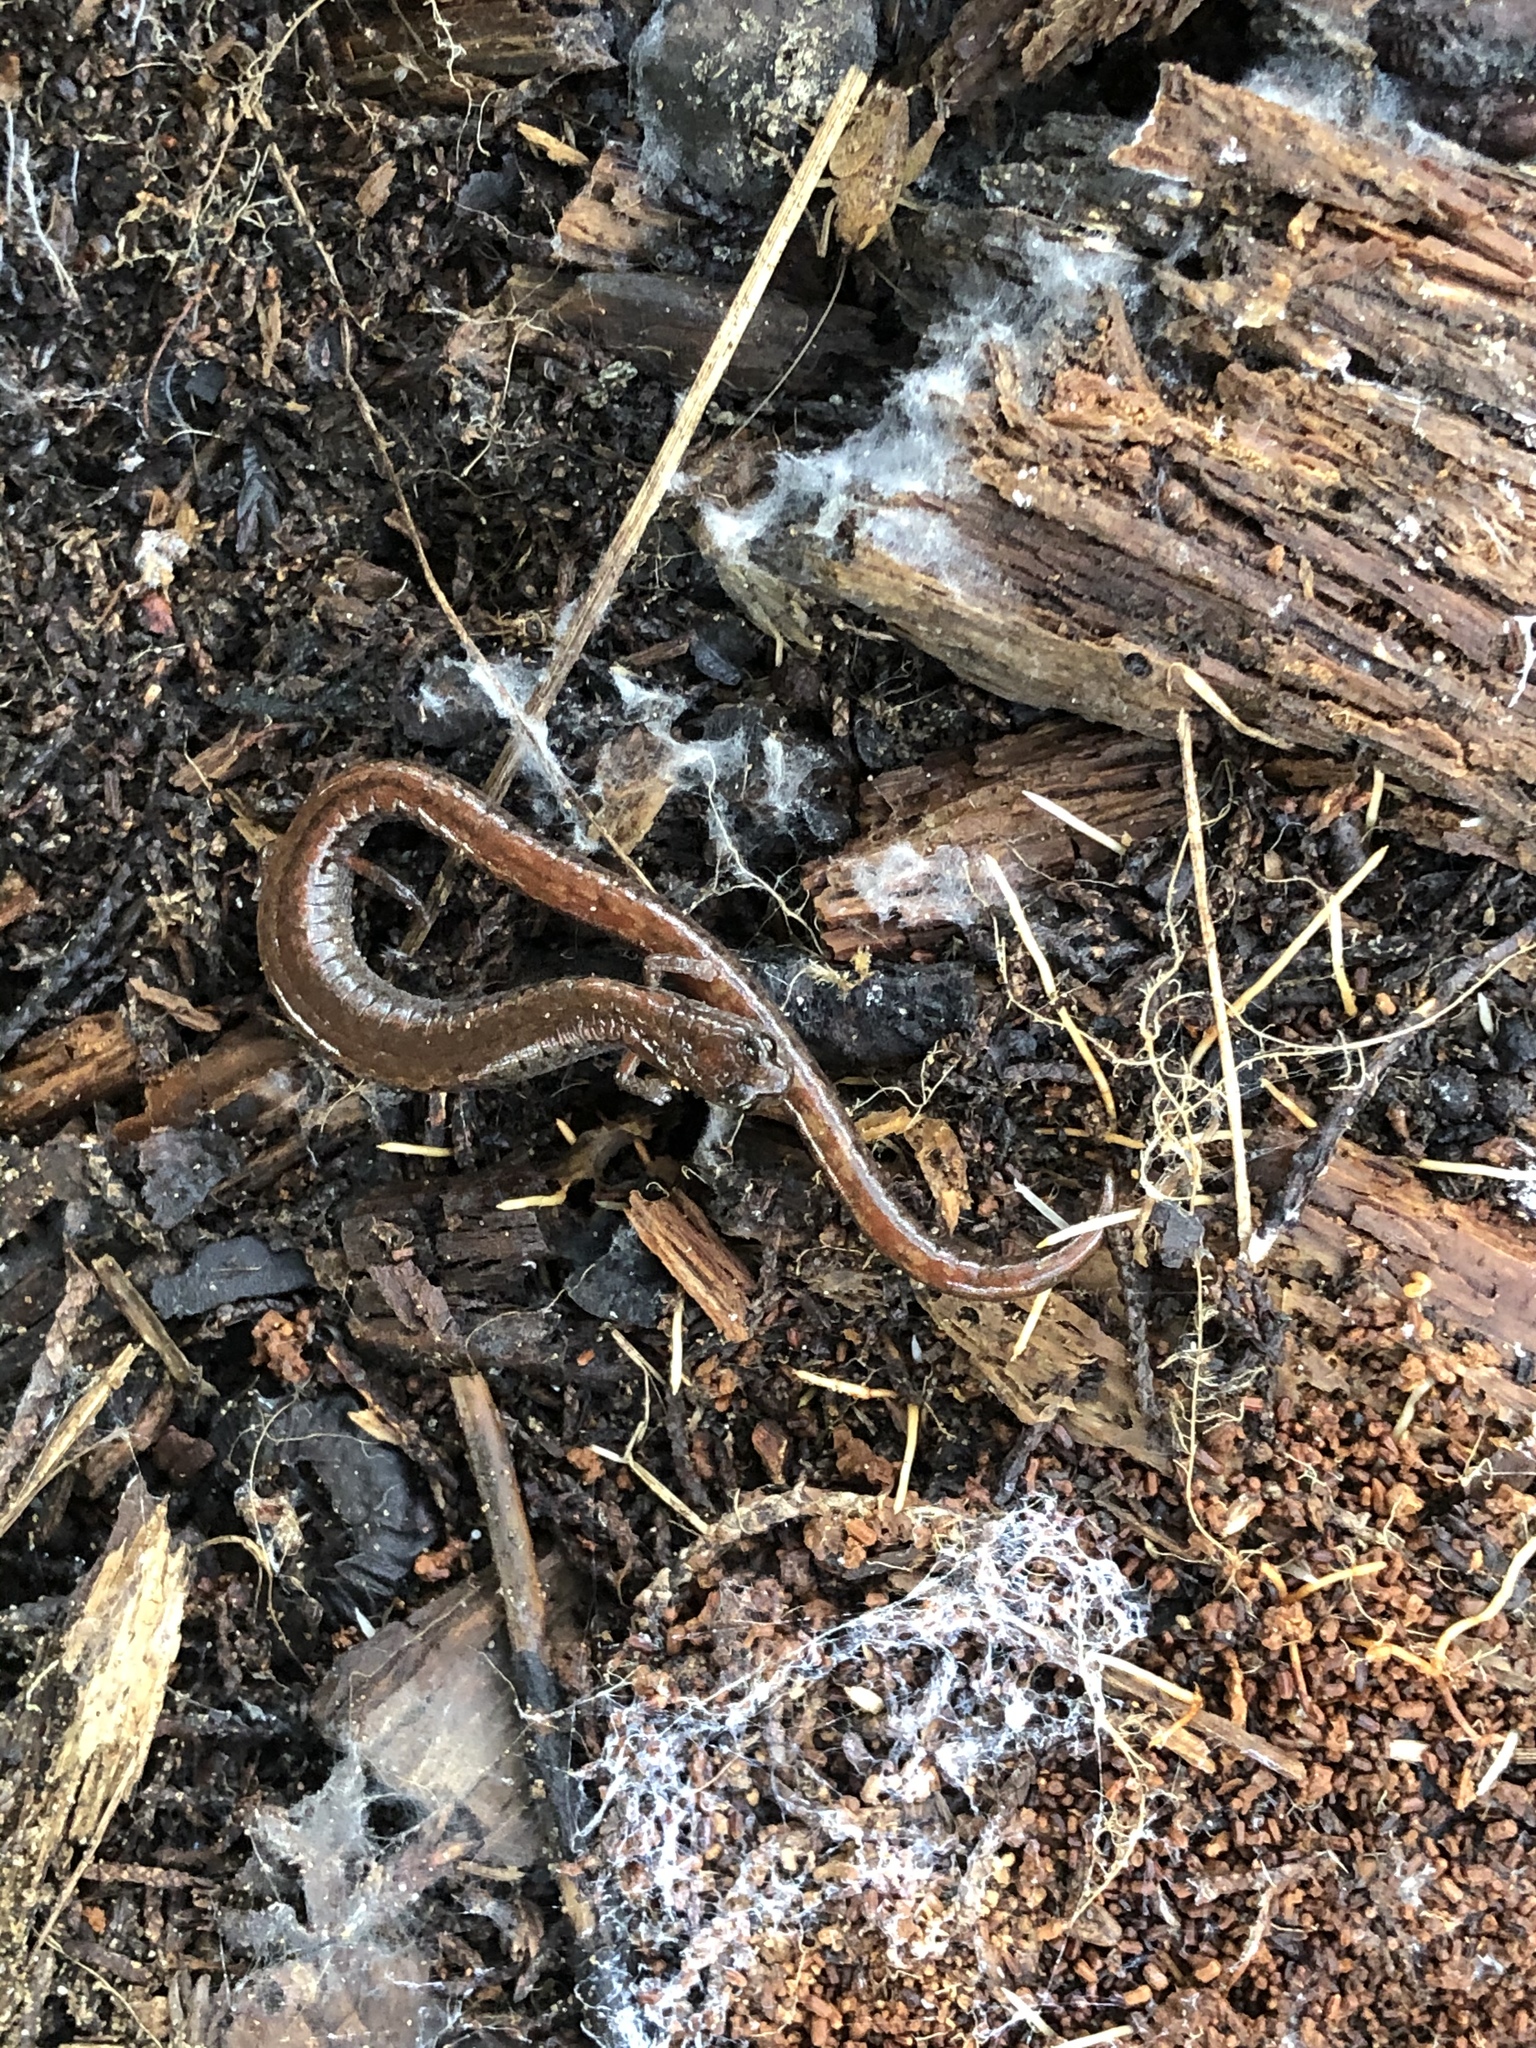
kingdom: Animalia
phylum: Chordata
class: Amphibia
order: Caudata
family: Plethodontidae
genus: Batrachoseps
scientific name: Batrachoseps attenuatus
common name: California slender salamander
